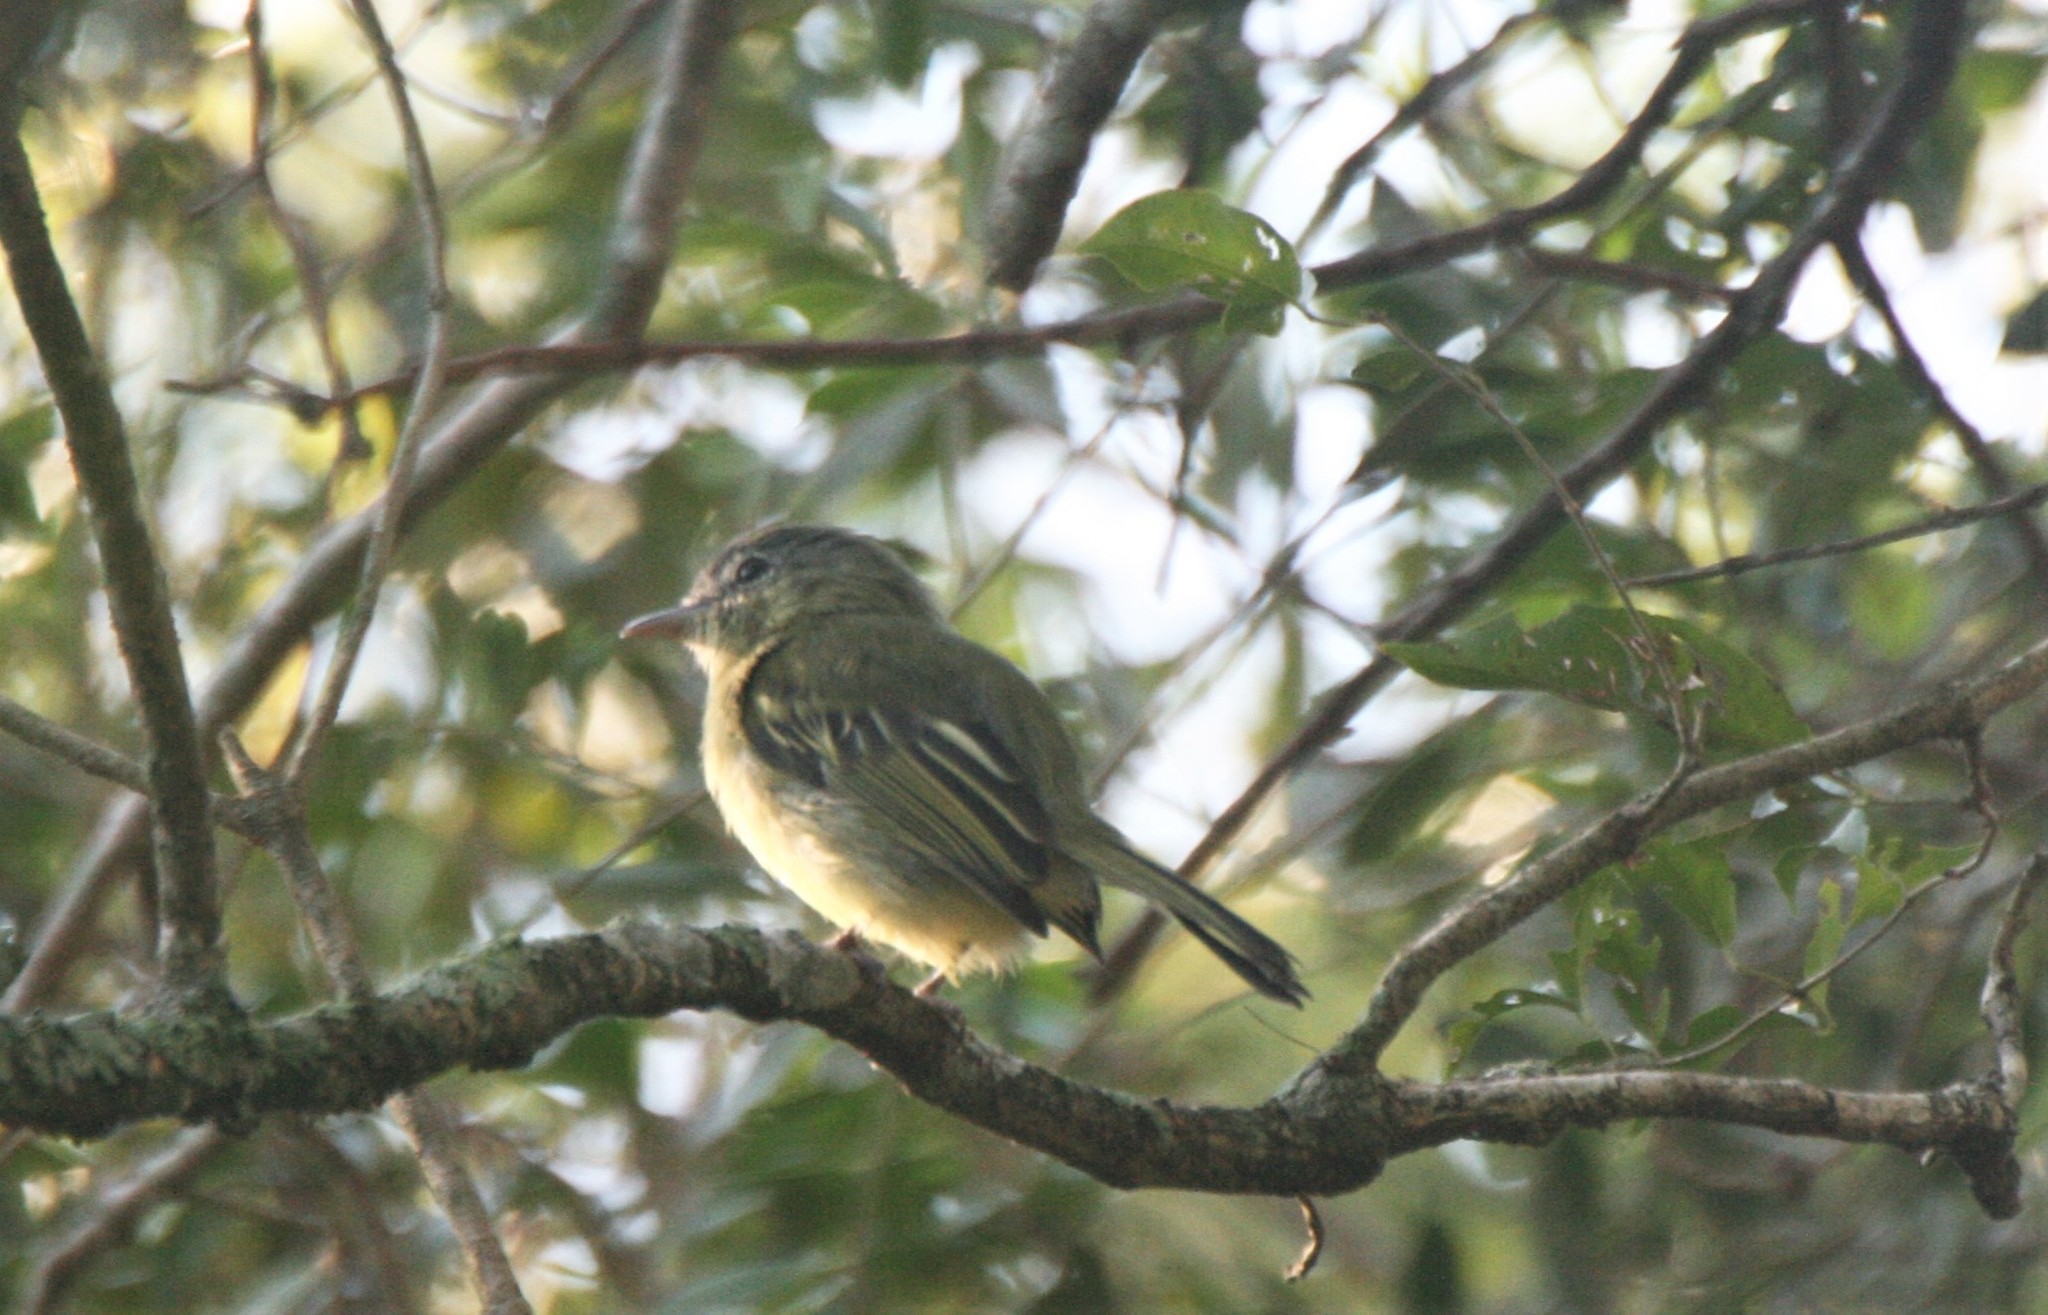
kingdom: Animalia
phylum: Chordata
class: Aves
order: Passeriformes
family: Tyrannidae
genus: Tolmomyias
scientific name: Tolmomyias sulphurescens
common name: Yellow-olive flycatcher
